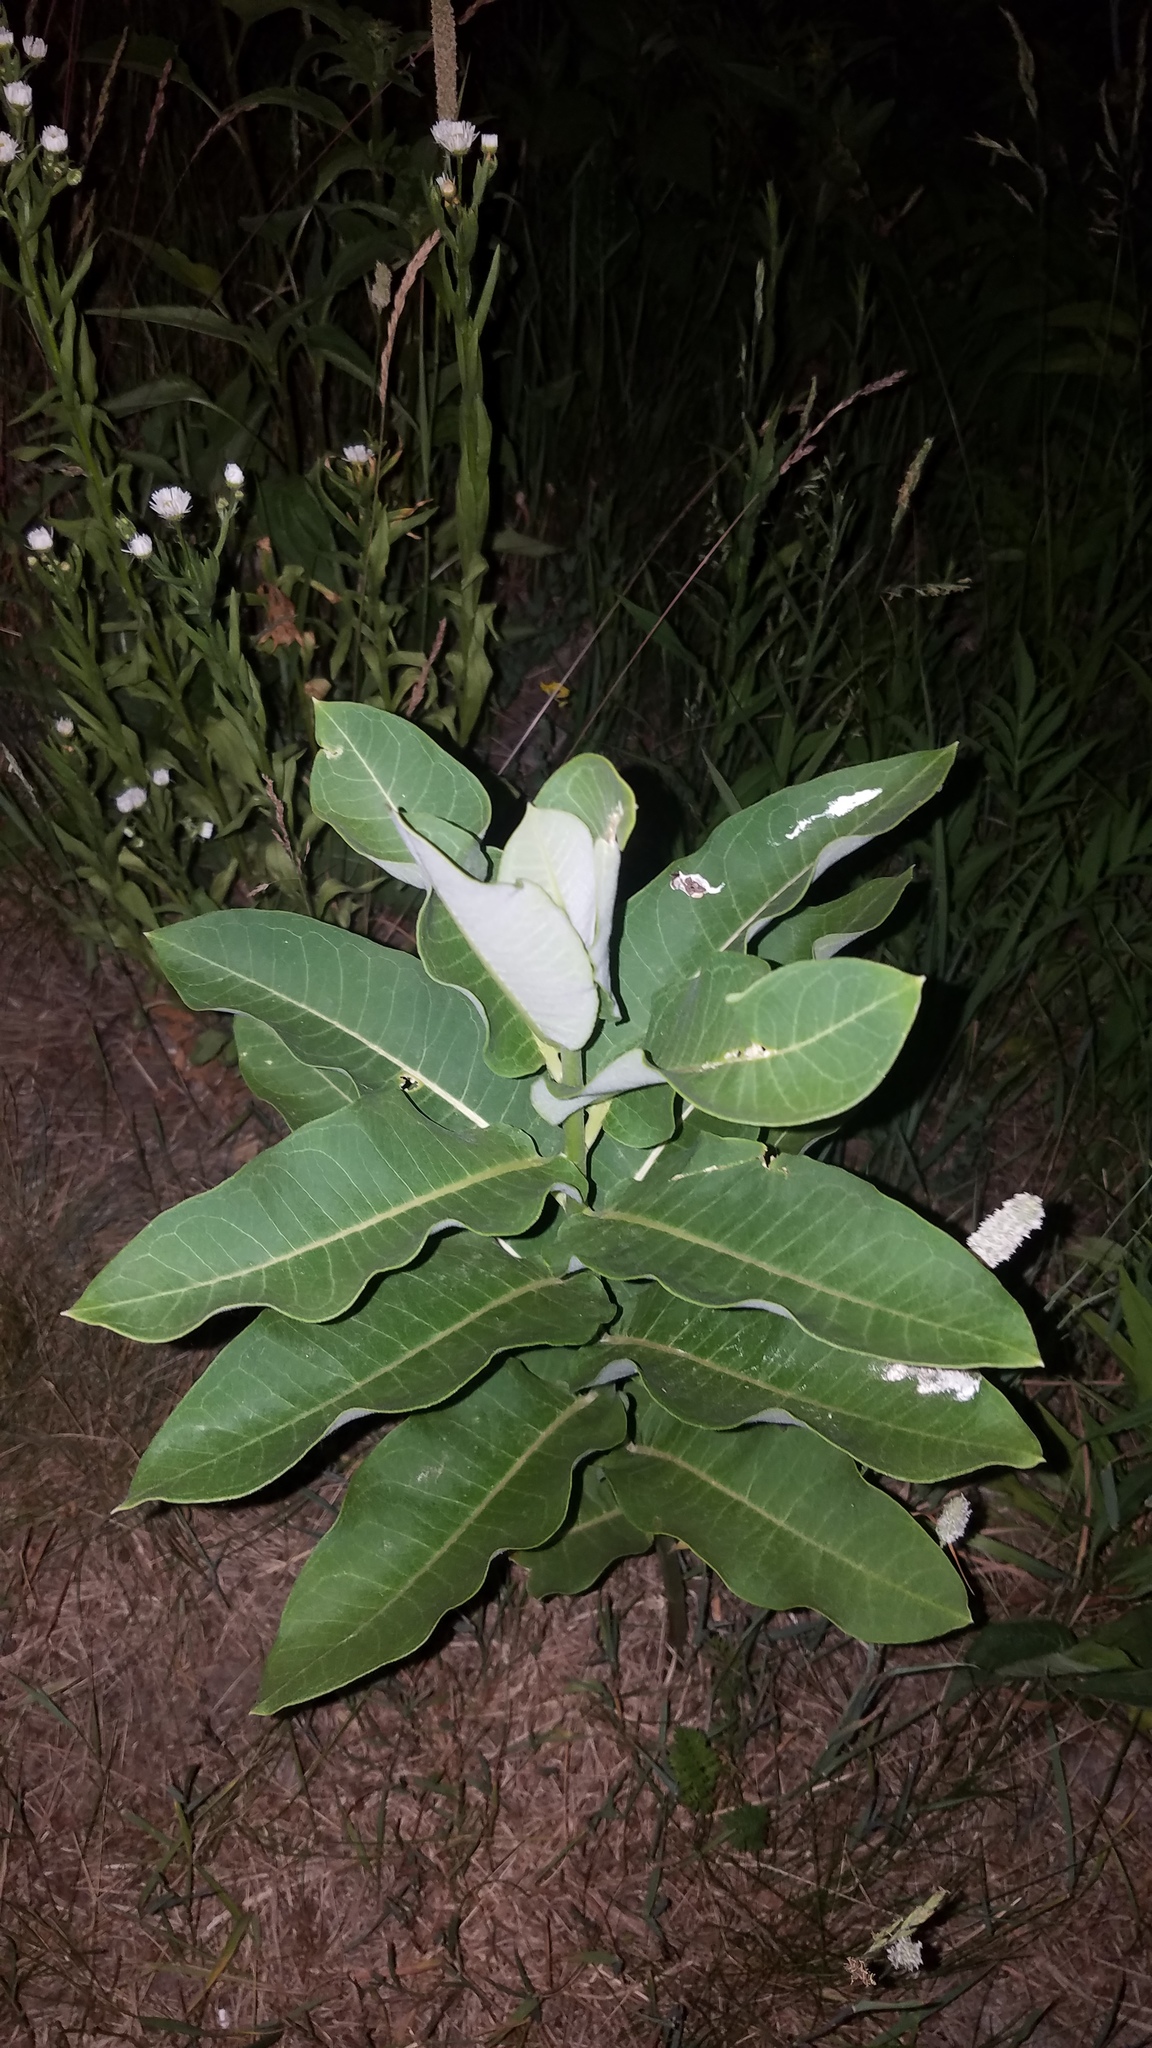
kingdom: Plantae
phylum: Tracheophyta
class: Magnoliopsida
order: Gentianales
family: Apocynaceae
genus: Asclepias
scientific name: Asclepias syriaca
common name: Common milkweed
